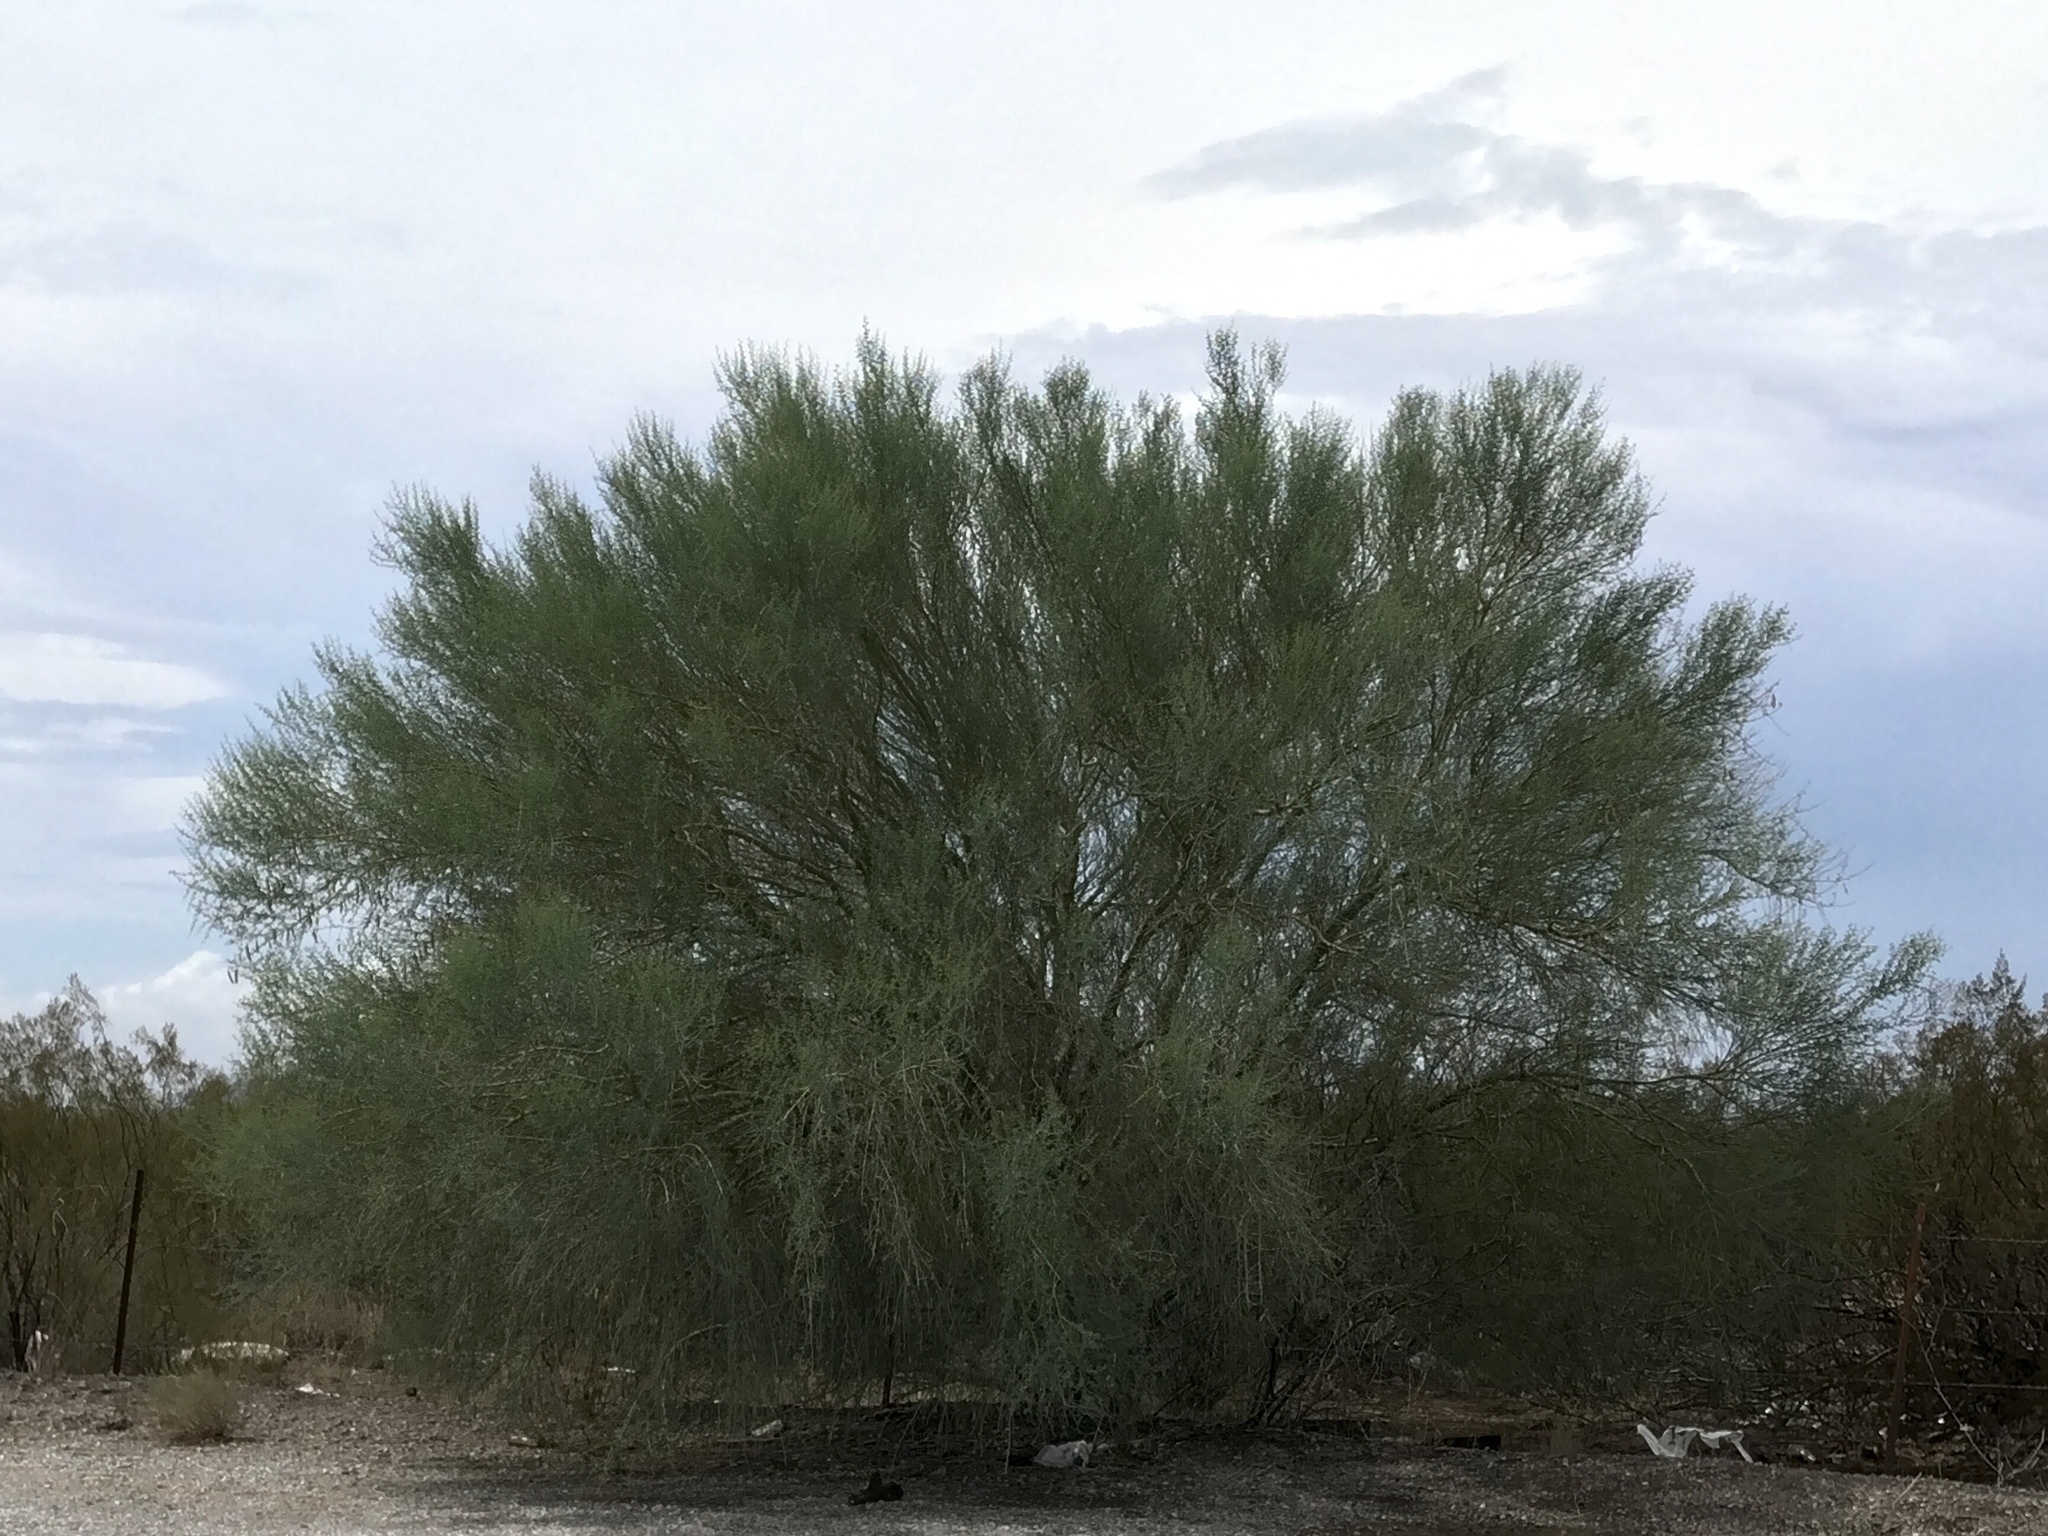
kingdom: Plantae
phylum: Tracheophyta
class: Magnoliopsida
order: Fabales
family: Fabaceae
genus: Parkinsonia
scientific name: Parkinsonia florida
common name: Blue paloverde
